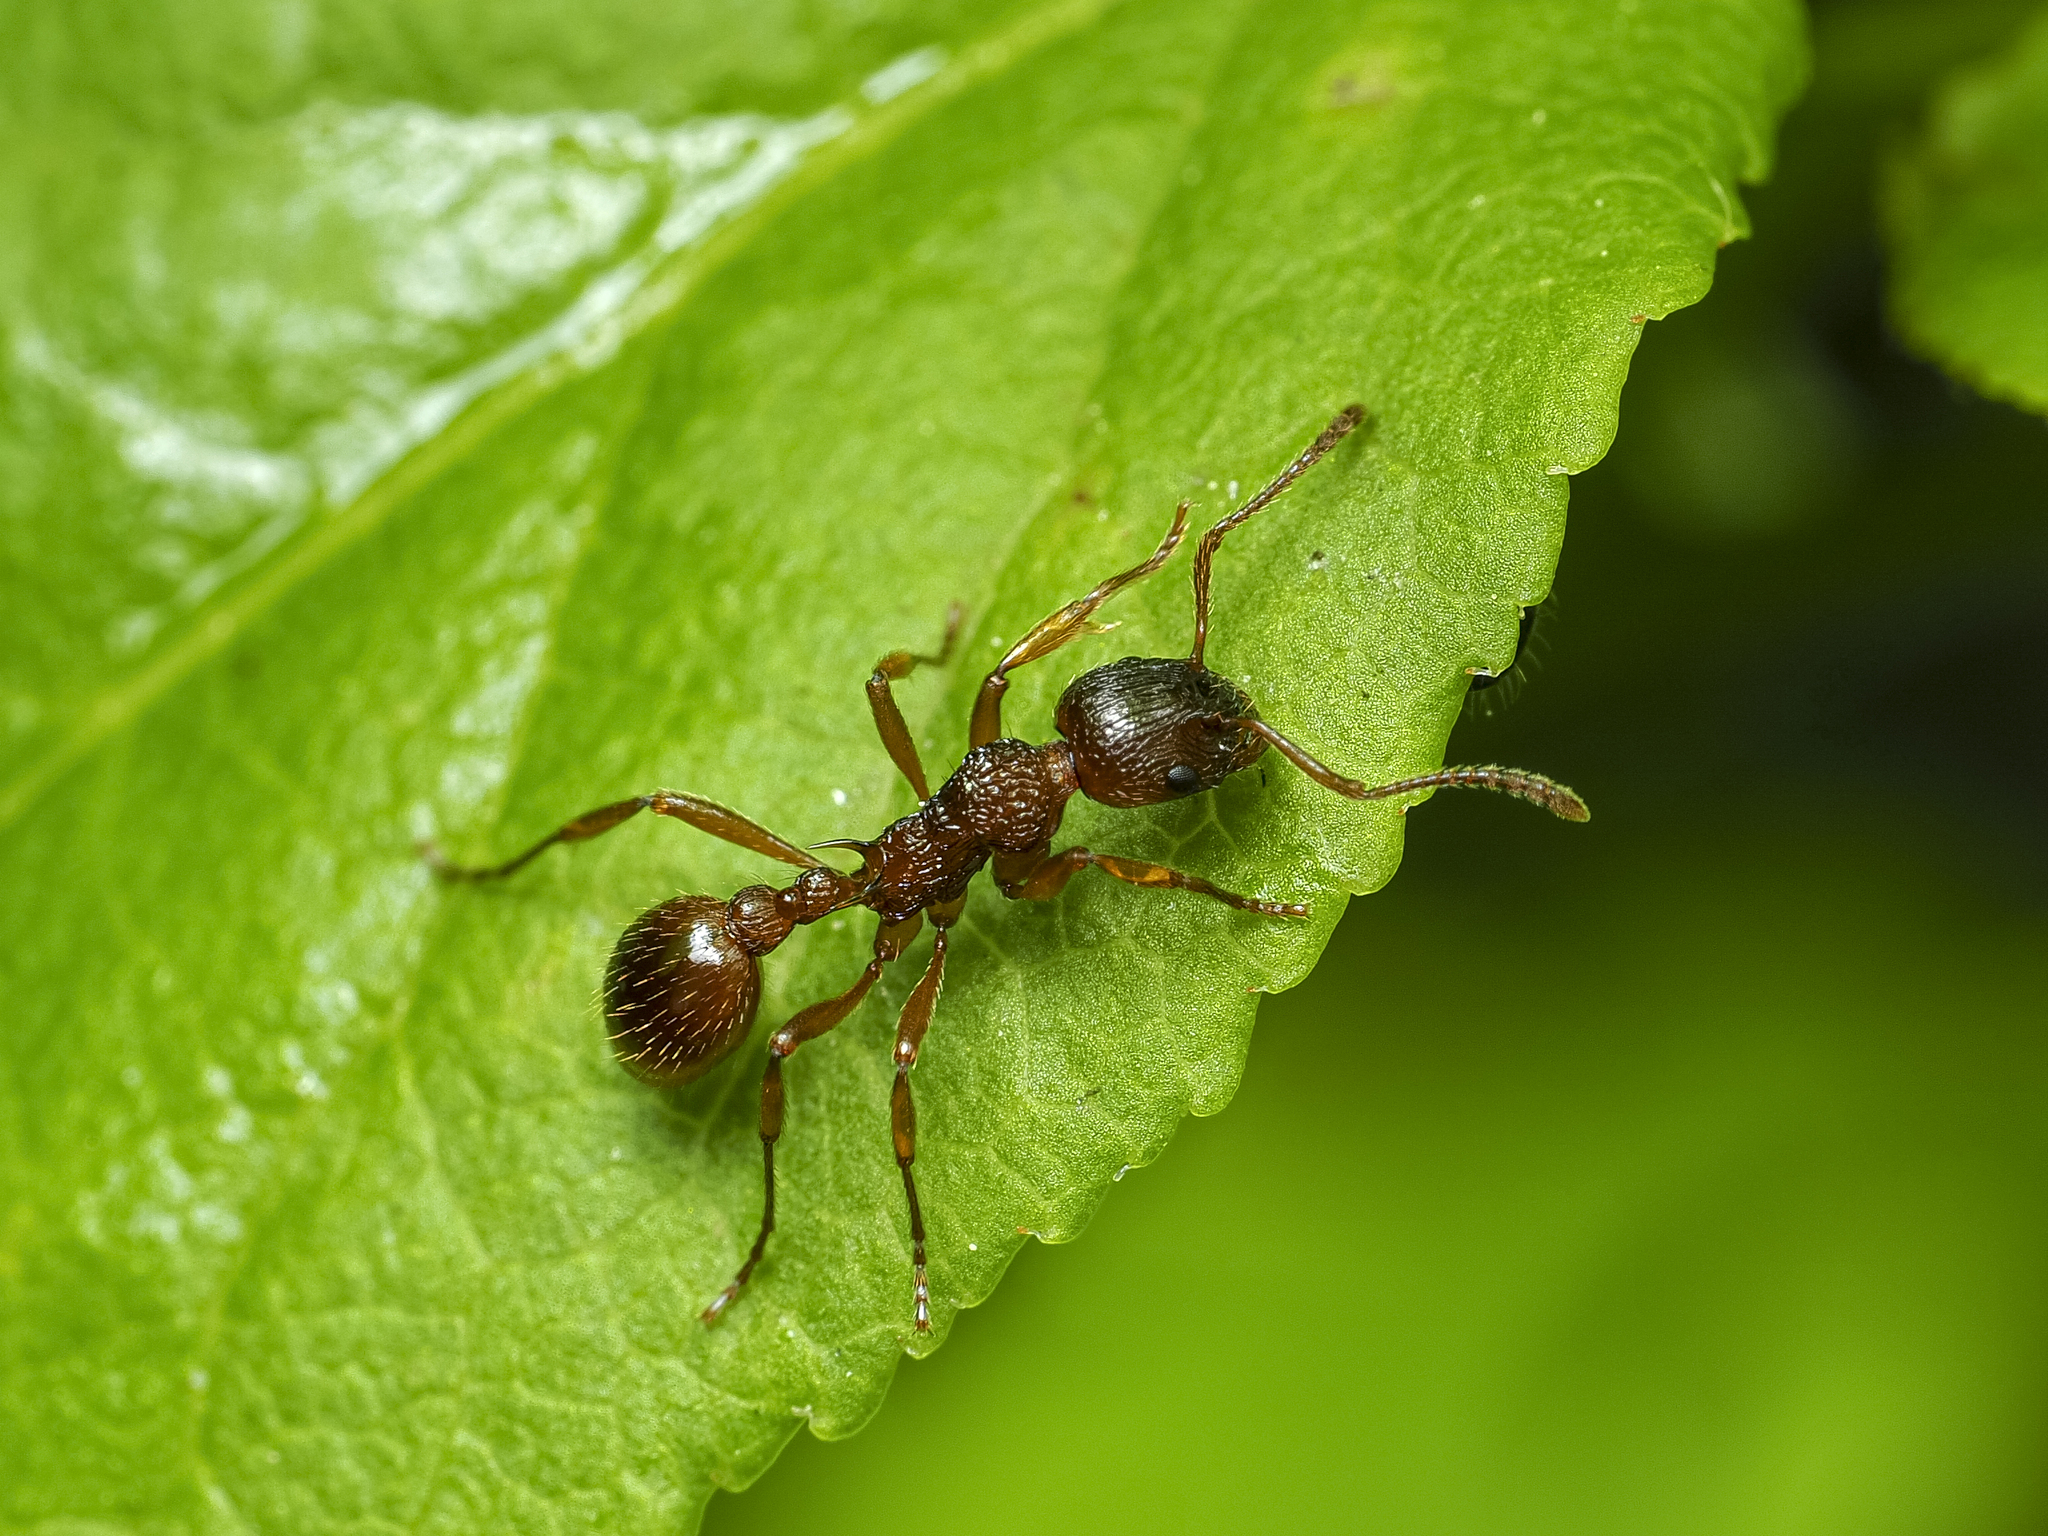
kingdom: Animalia
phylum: Arthropoda
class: Insecta
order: Hymenoptera
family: Formicidae
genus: Myrmica
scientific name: Myrmica ruginodis
